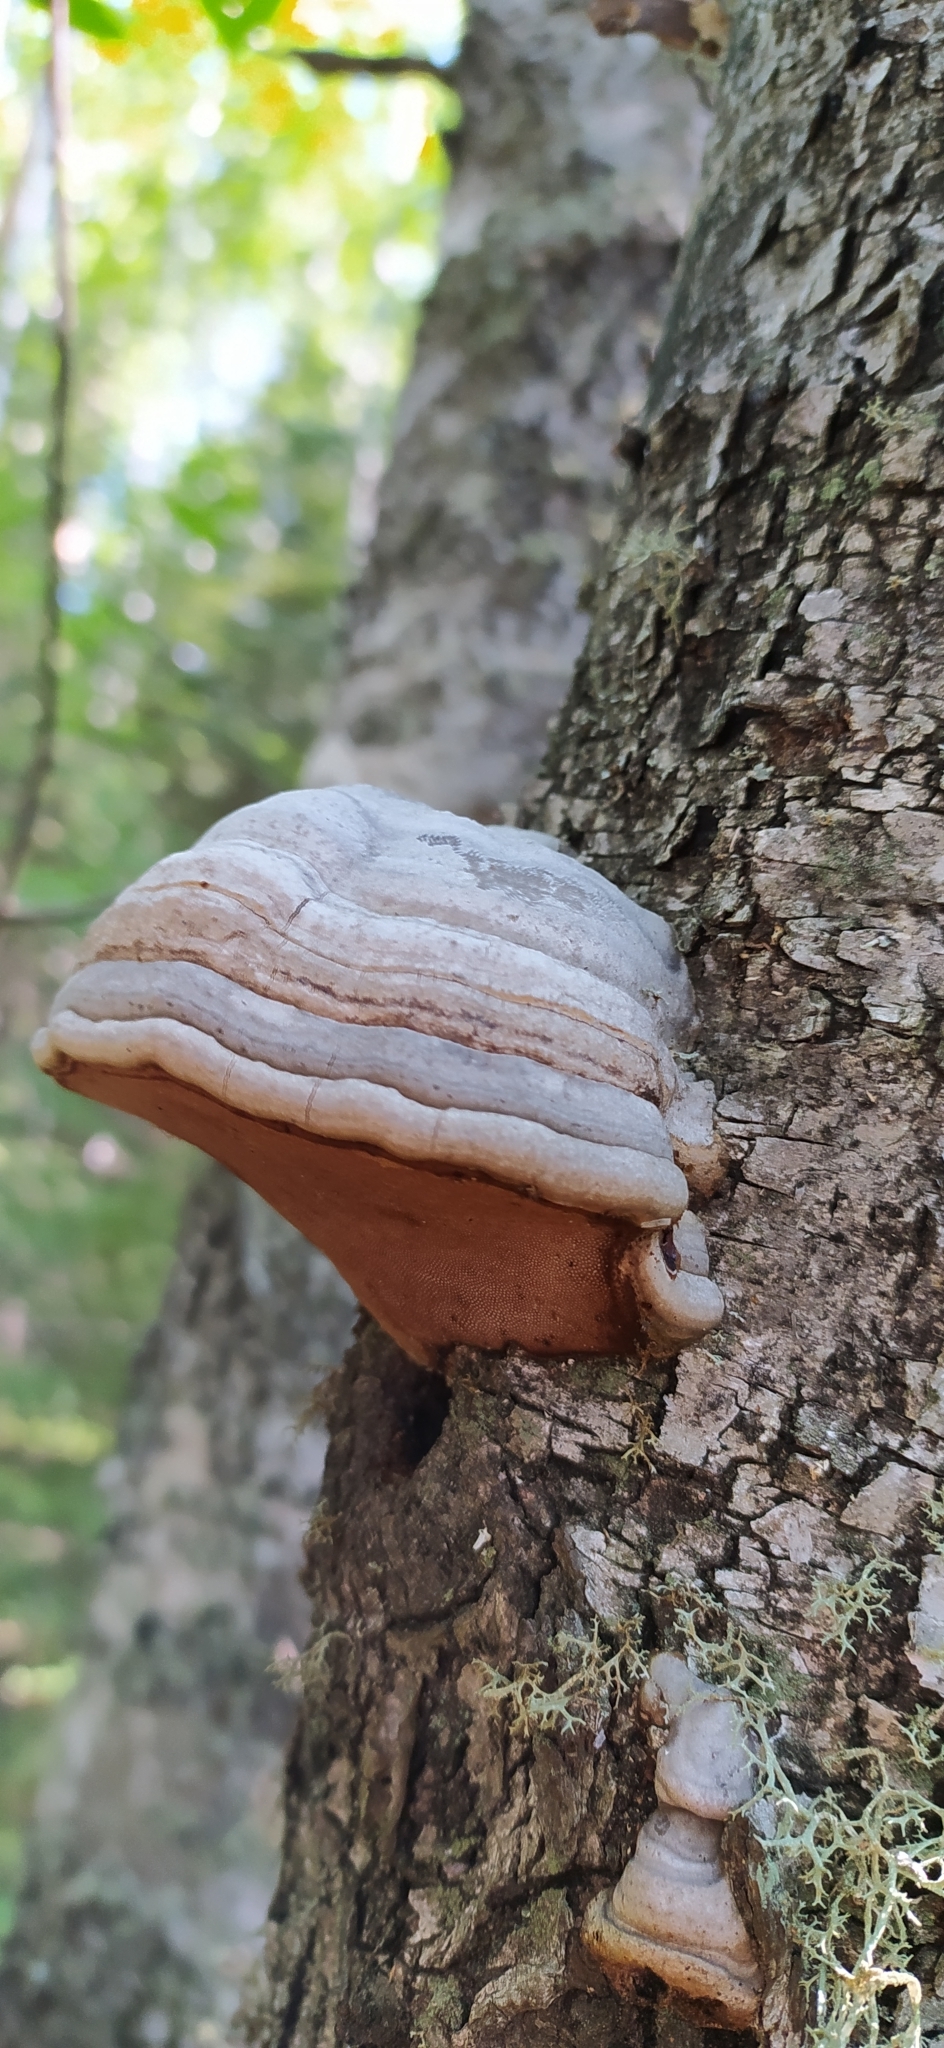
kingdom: Fungi
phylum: Basidiomycota
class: Agaricomycetes
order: Polyporales
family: Polyporaceae
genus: Fomes
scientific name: Fomes fomentarius
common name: Hoof fungus
